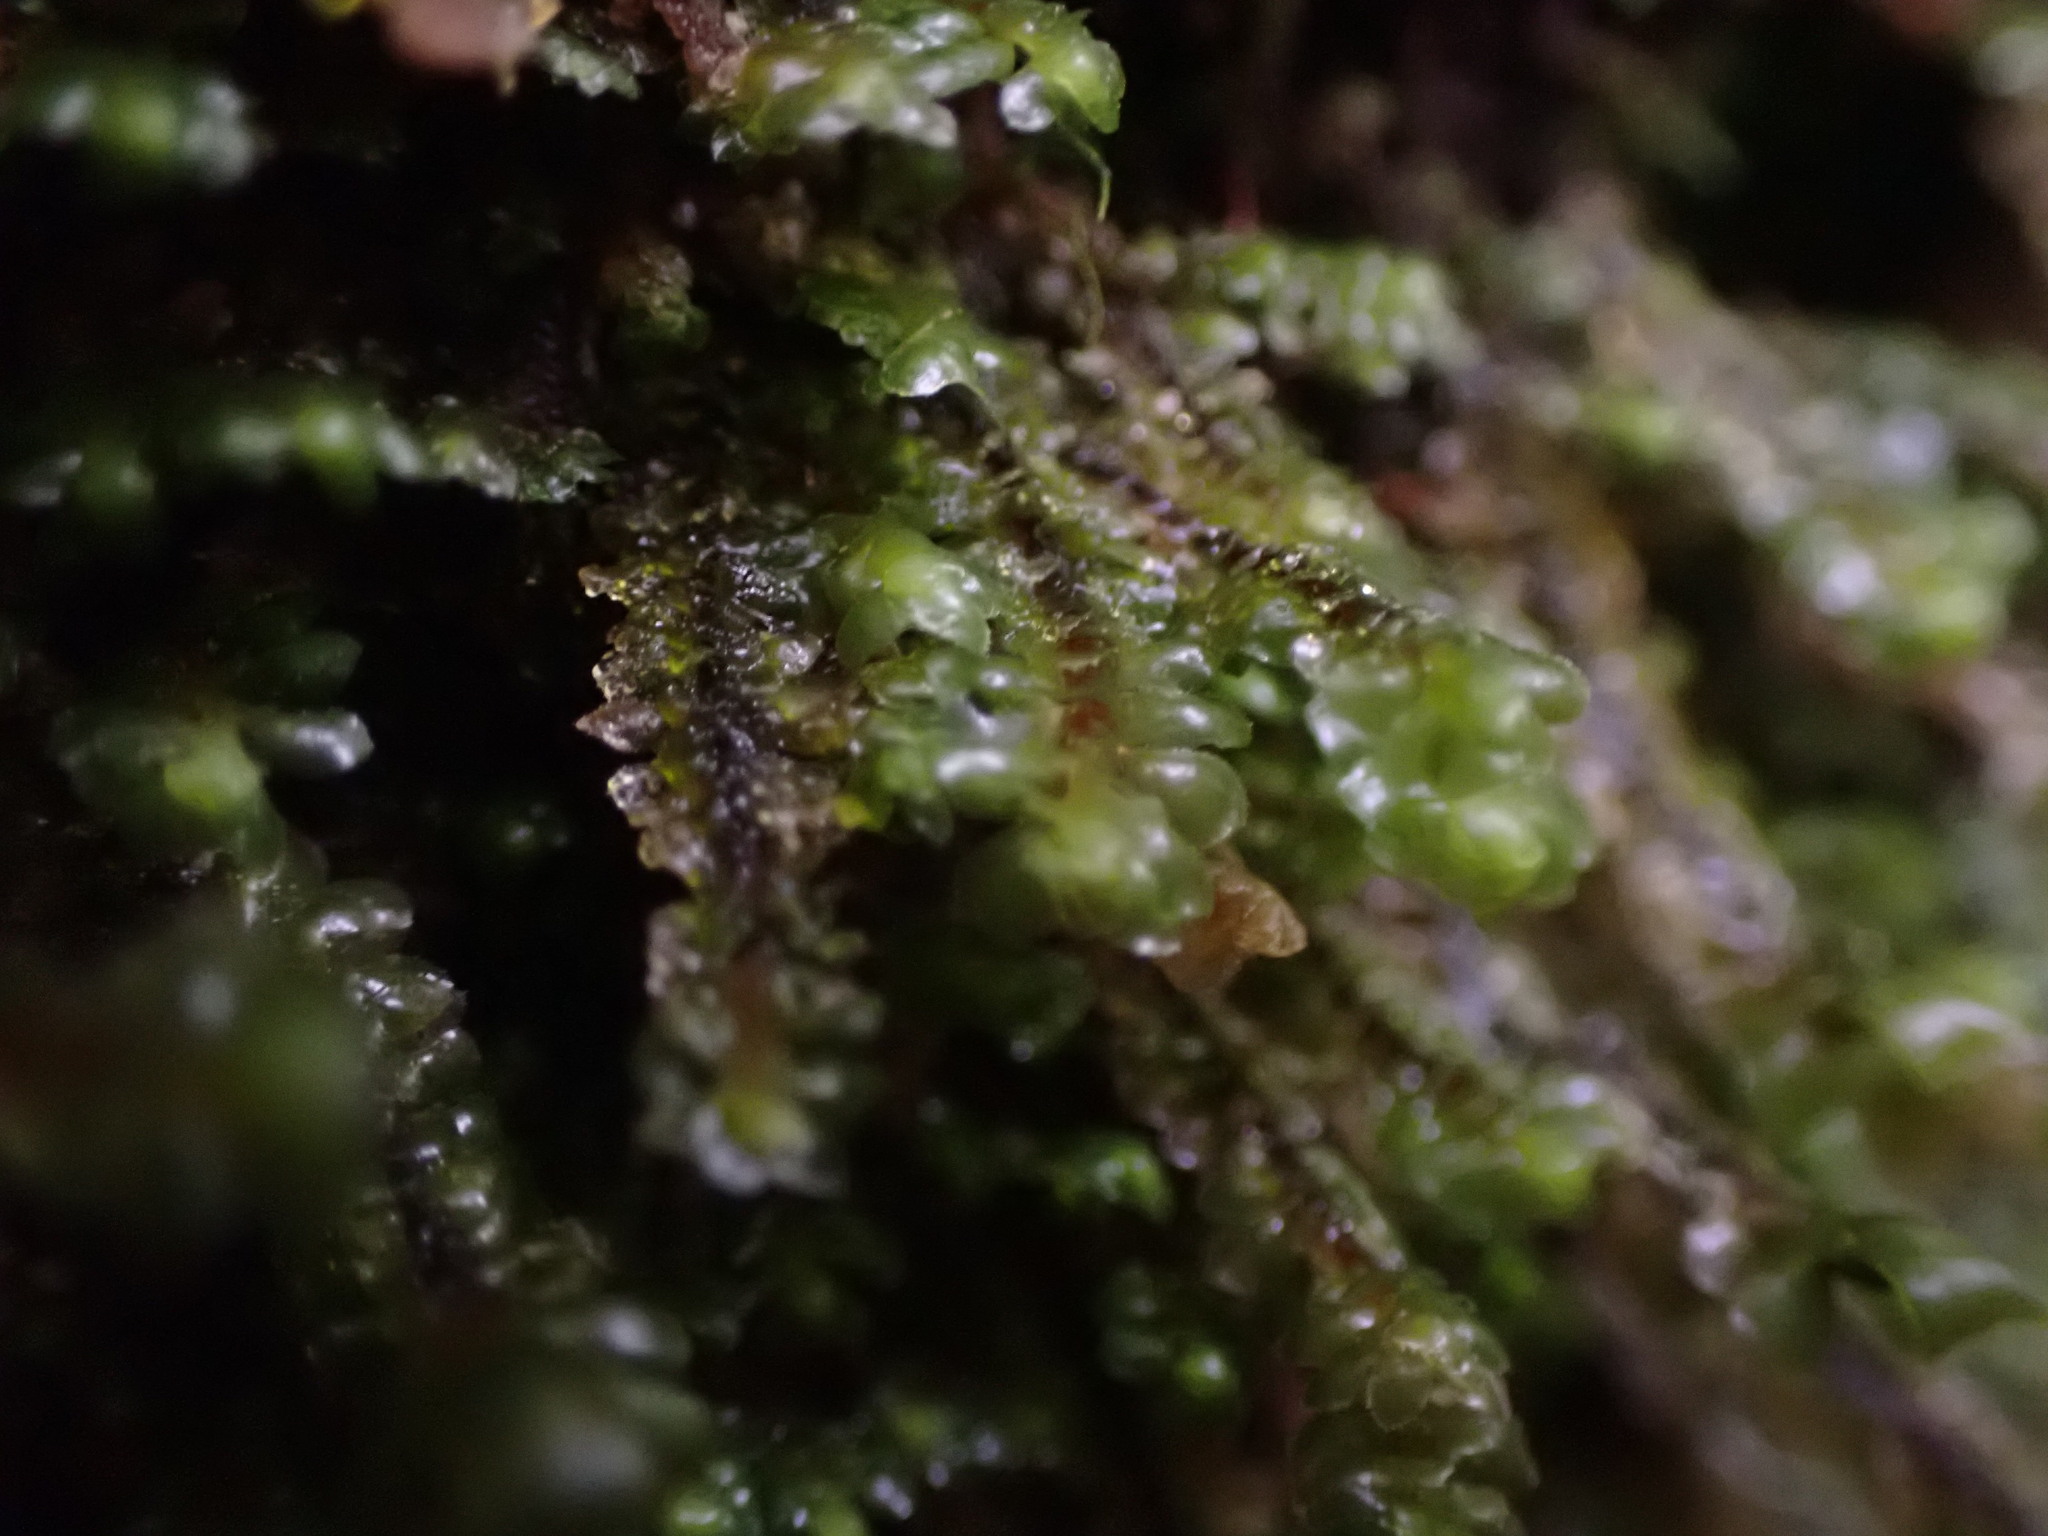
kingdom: Plantae
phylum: Marchantiophyta
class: Jungermanniopsida
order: Jungermanniales
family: Scapaniaceae
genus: Scapania
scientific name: Scapania bolanderi
